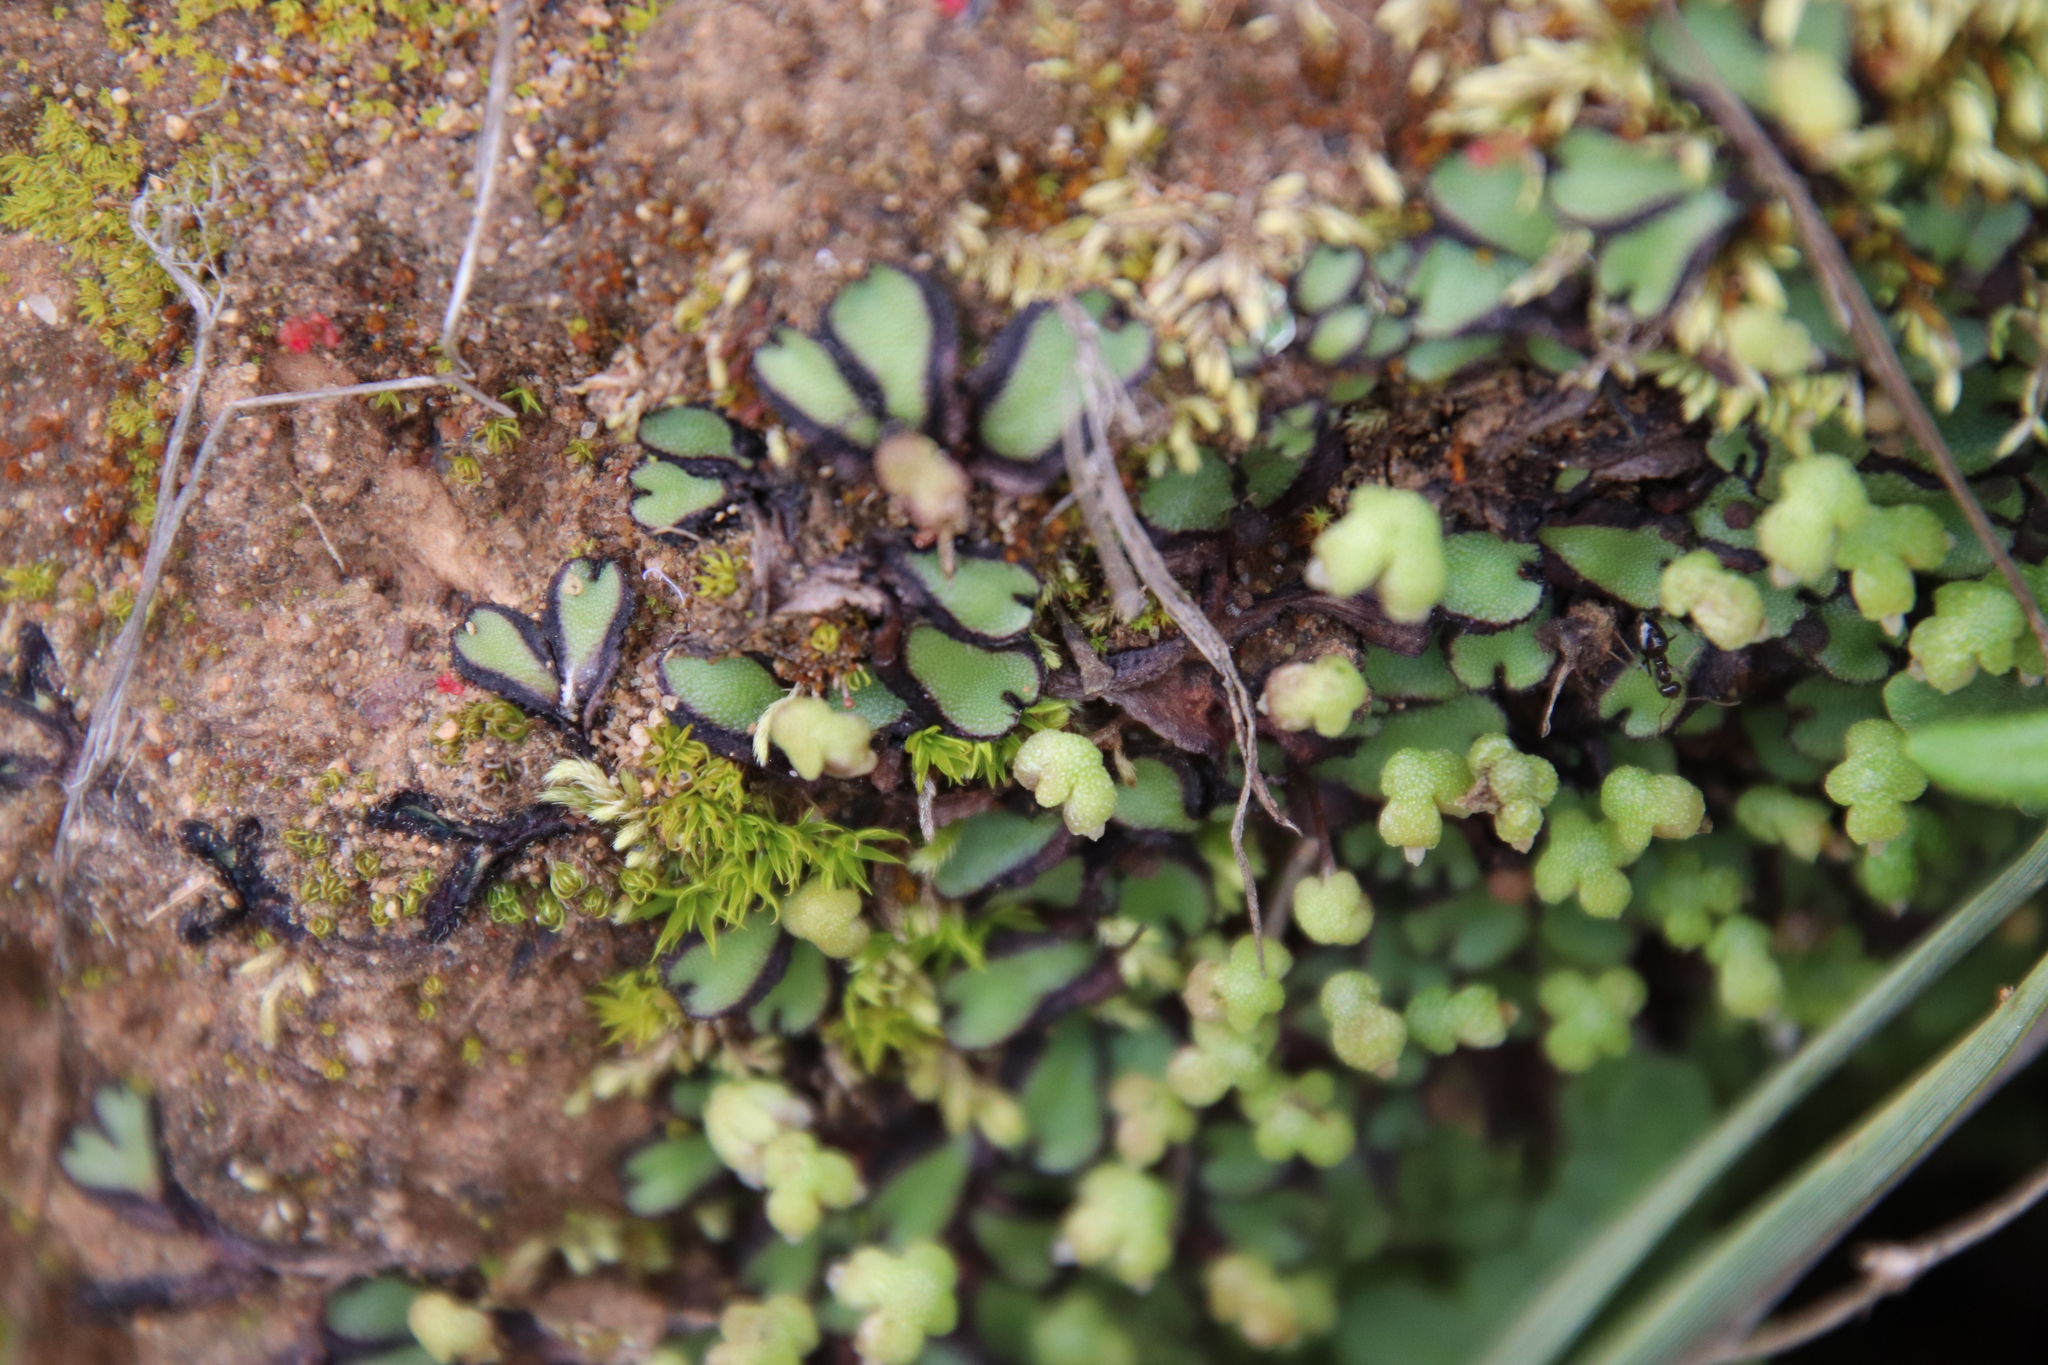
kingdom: Plantae
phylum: Marchantiophyta
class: Marchantiopsida
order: Marchantiales
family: Aytoniaceae
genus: Asterella
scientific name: Asterella californica
